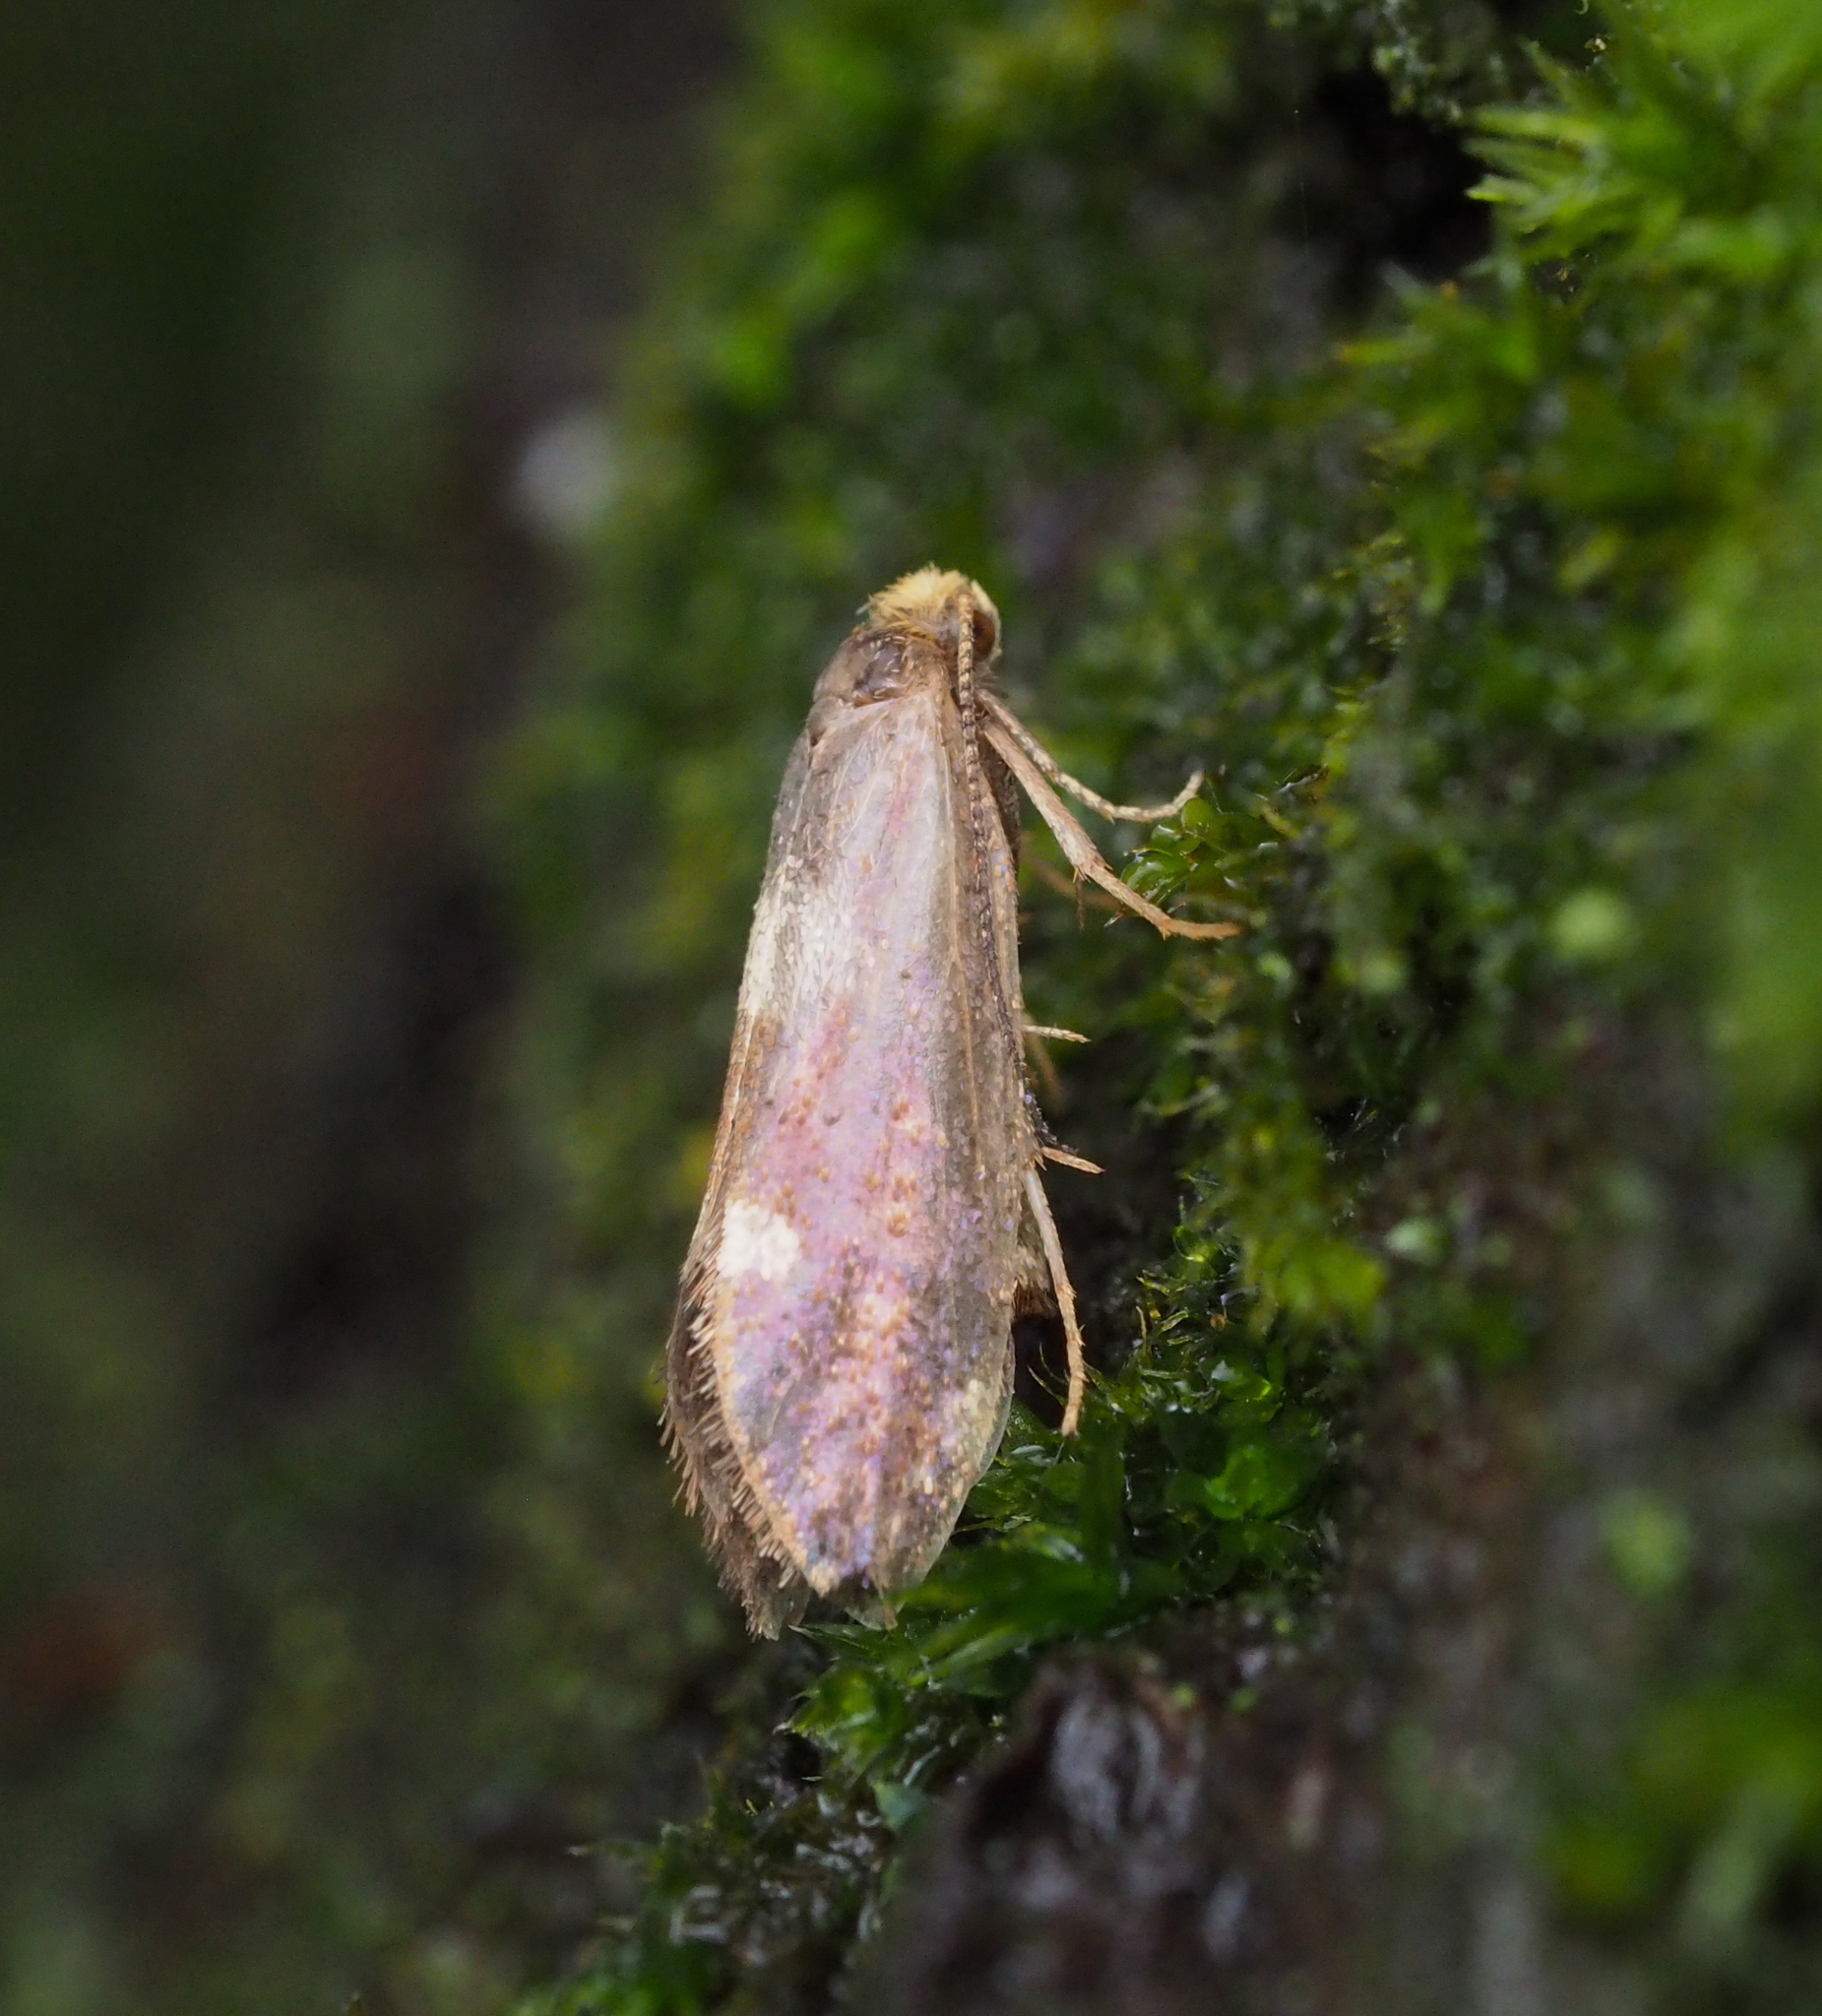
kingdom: Animalia
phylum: Arthropoda
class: Insecta
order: Lepidoptera
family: Incurvariidae
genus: Lampronia
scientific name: Lampronia oehlmaniella
